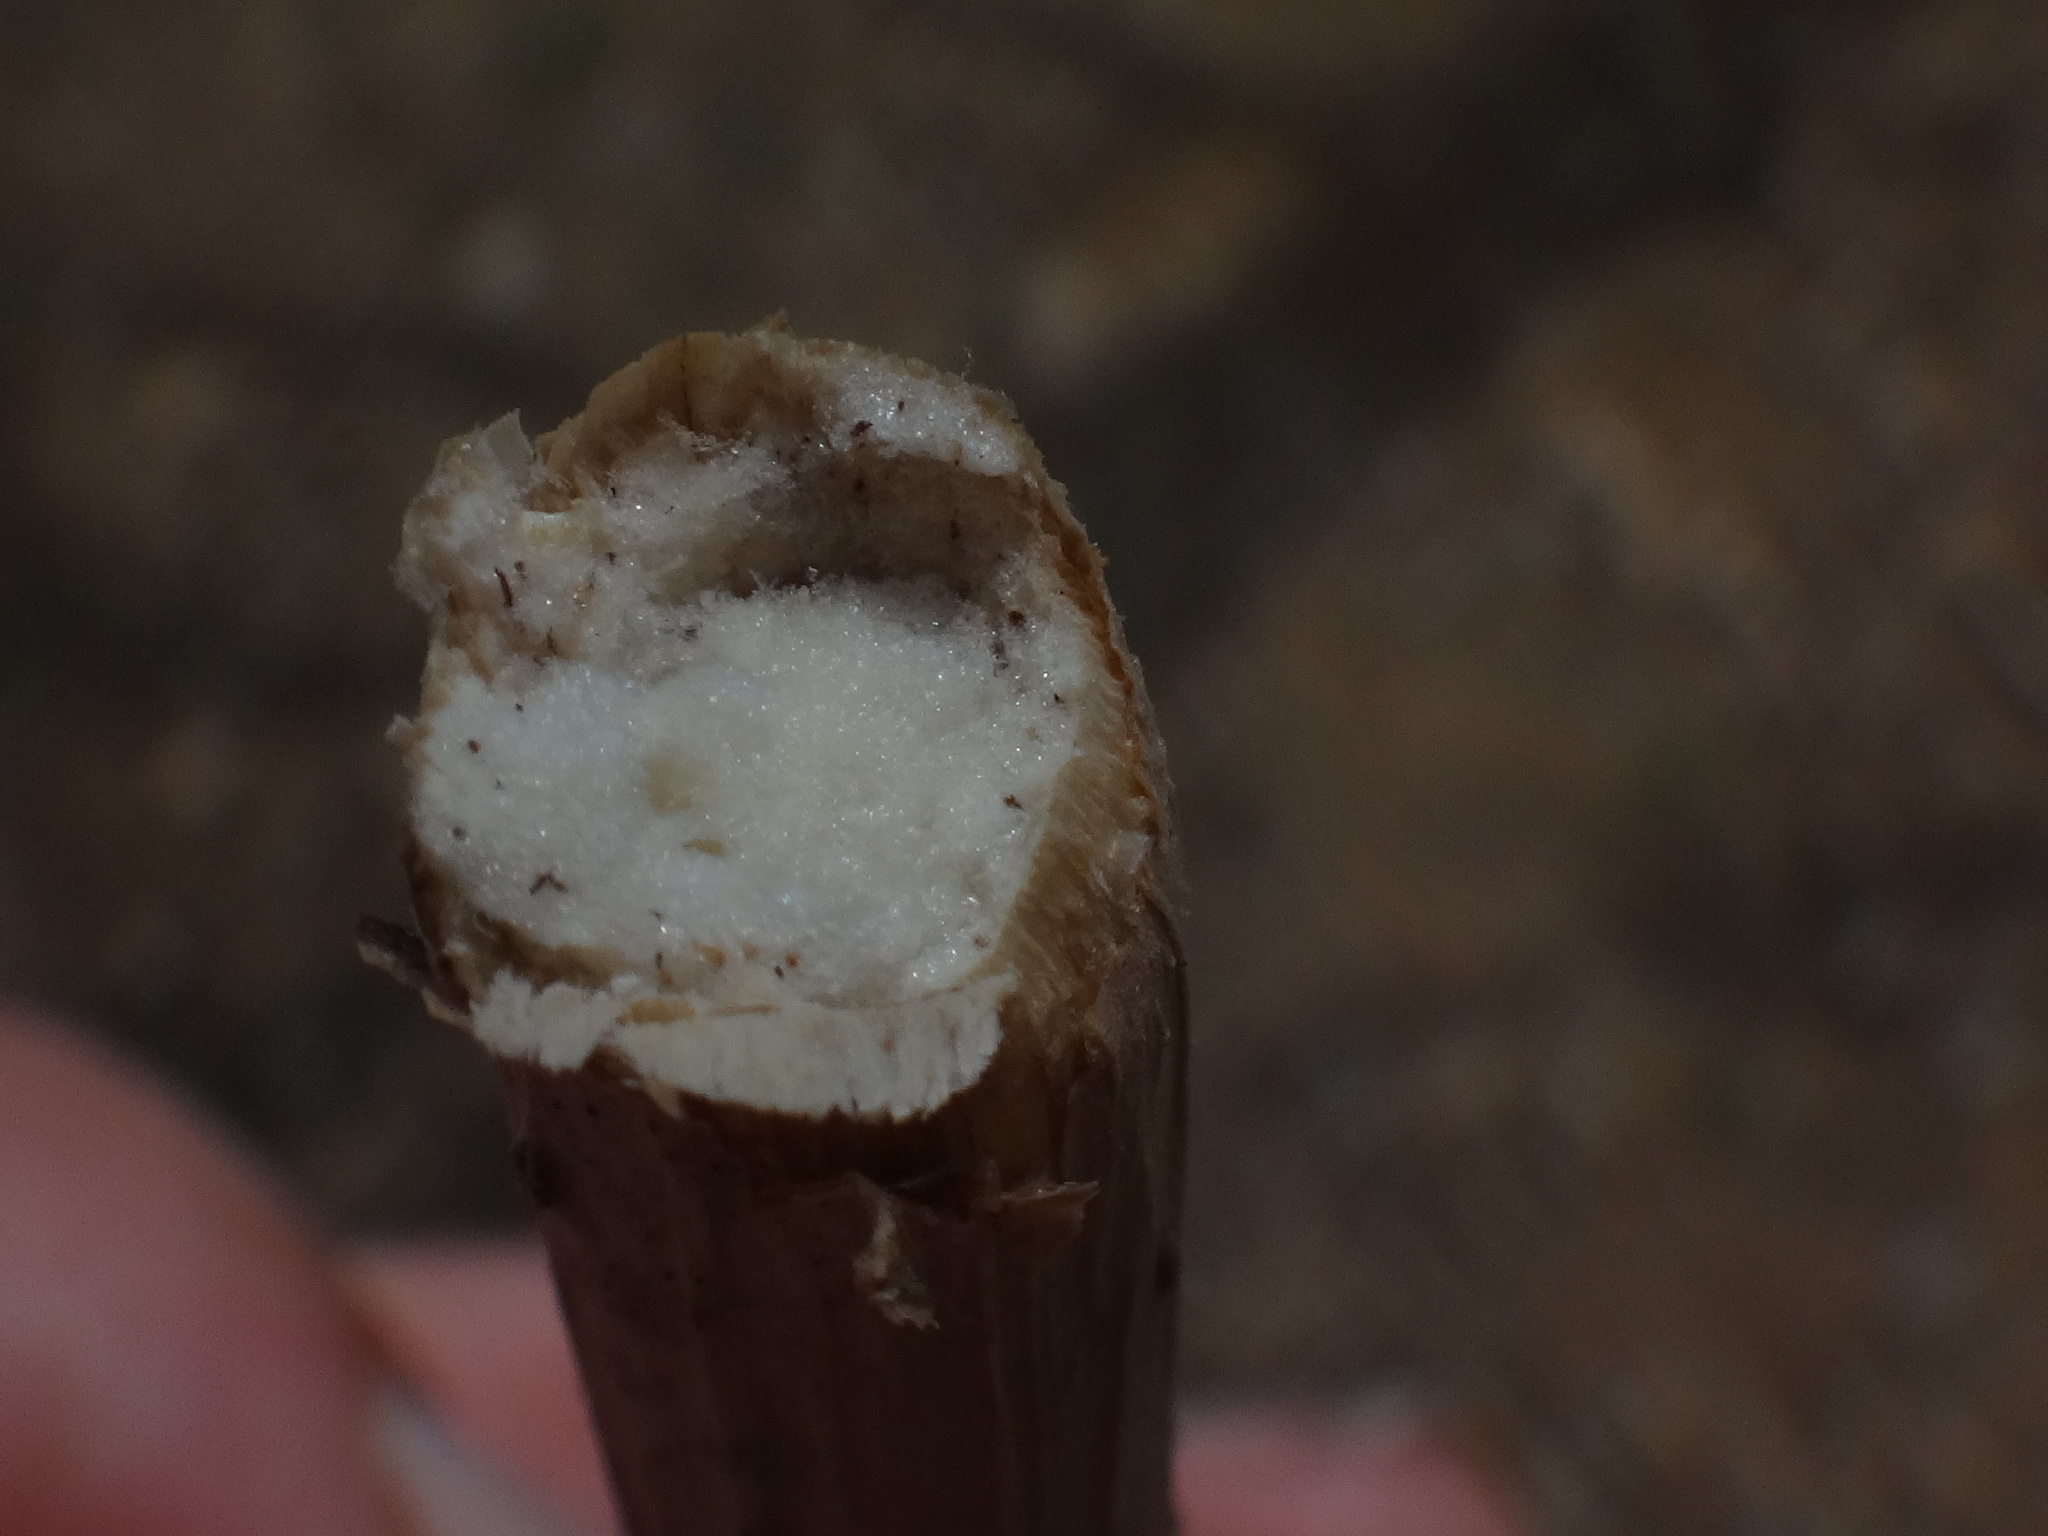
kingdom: Plantae
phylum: Tracheophyta
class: Magnoliopsida
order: Dipsacales
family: Viburnaceae
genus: Sambucus
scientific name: Sambucus nigra
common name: Elder
